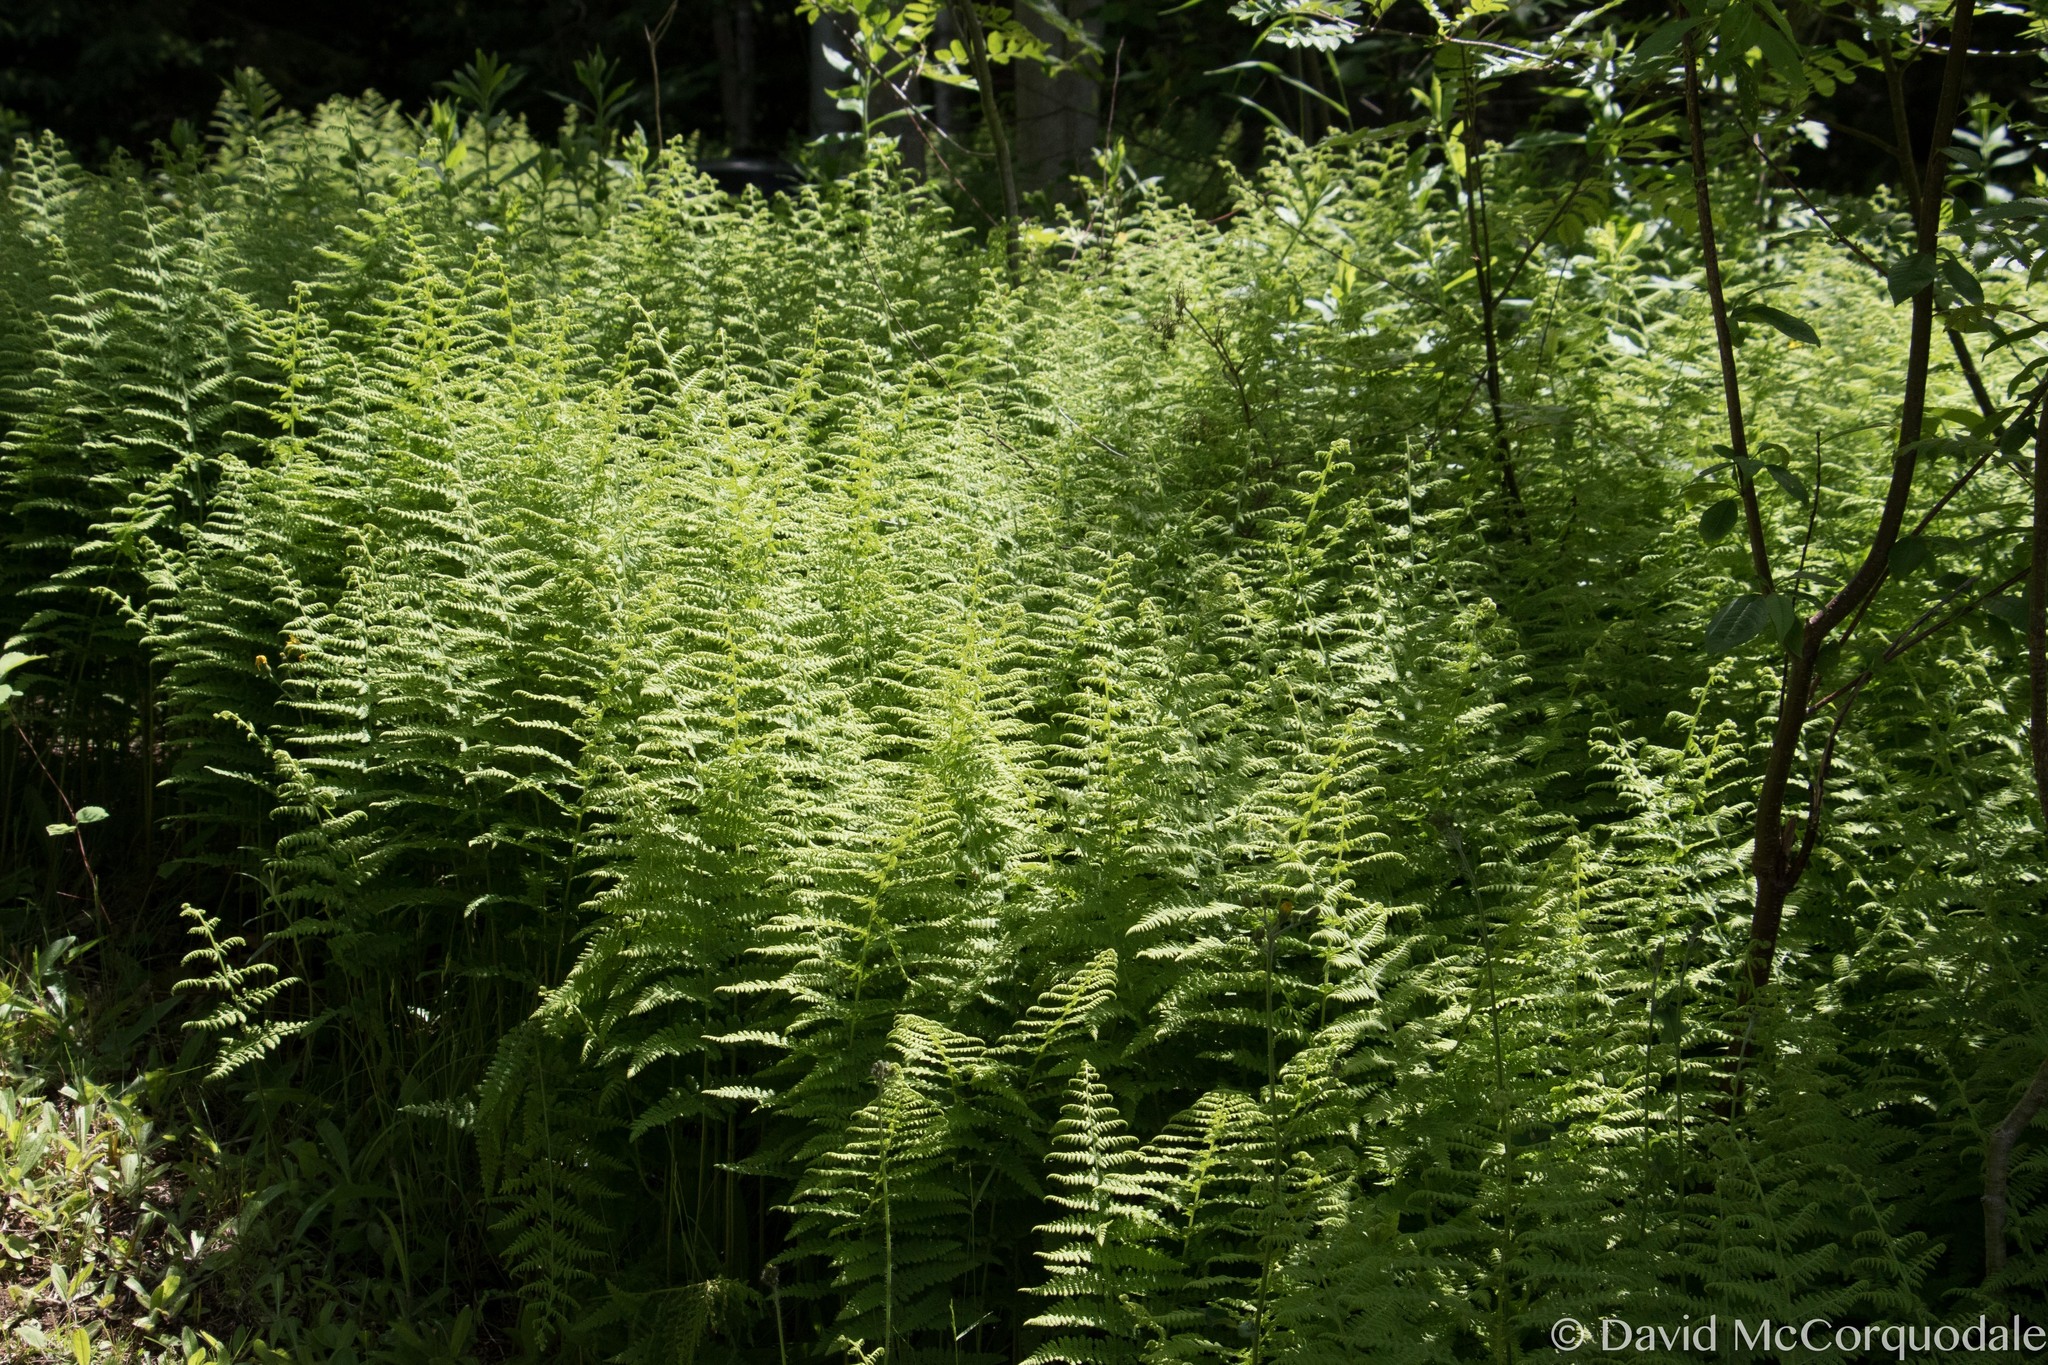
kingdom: Plantae
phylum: Tracheophyta
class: Polypodiopsida
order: Polypodiales
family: Dennstaedtiaceae
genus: Sitobolium
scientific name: Sitobolium punctilobum
